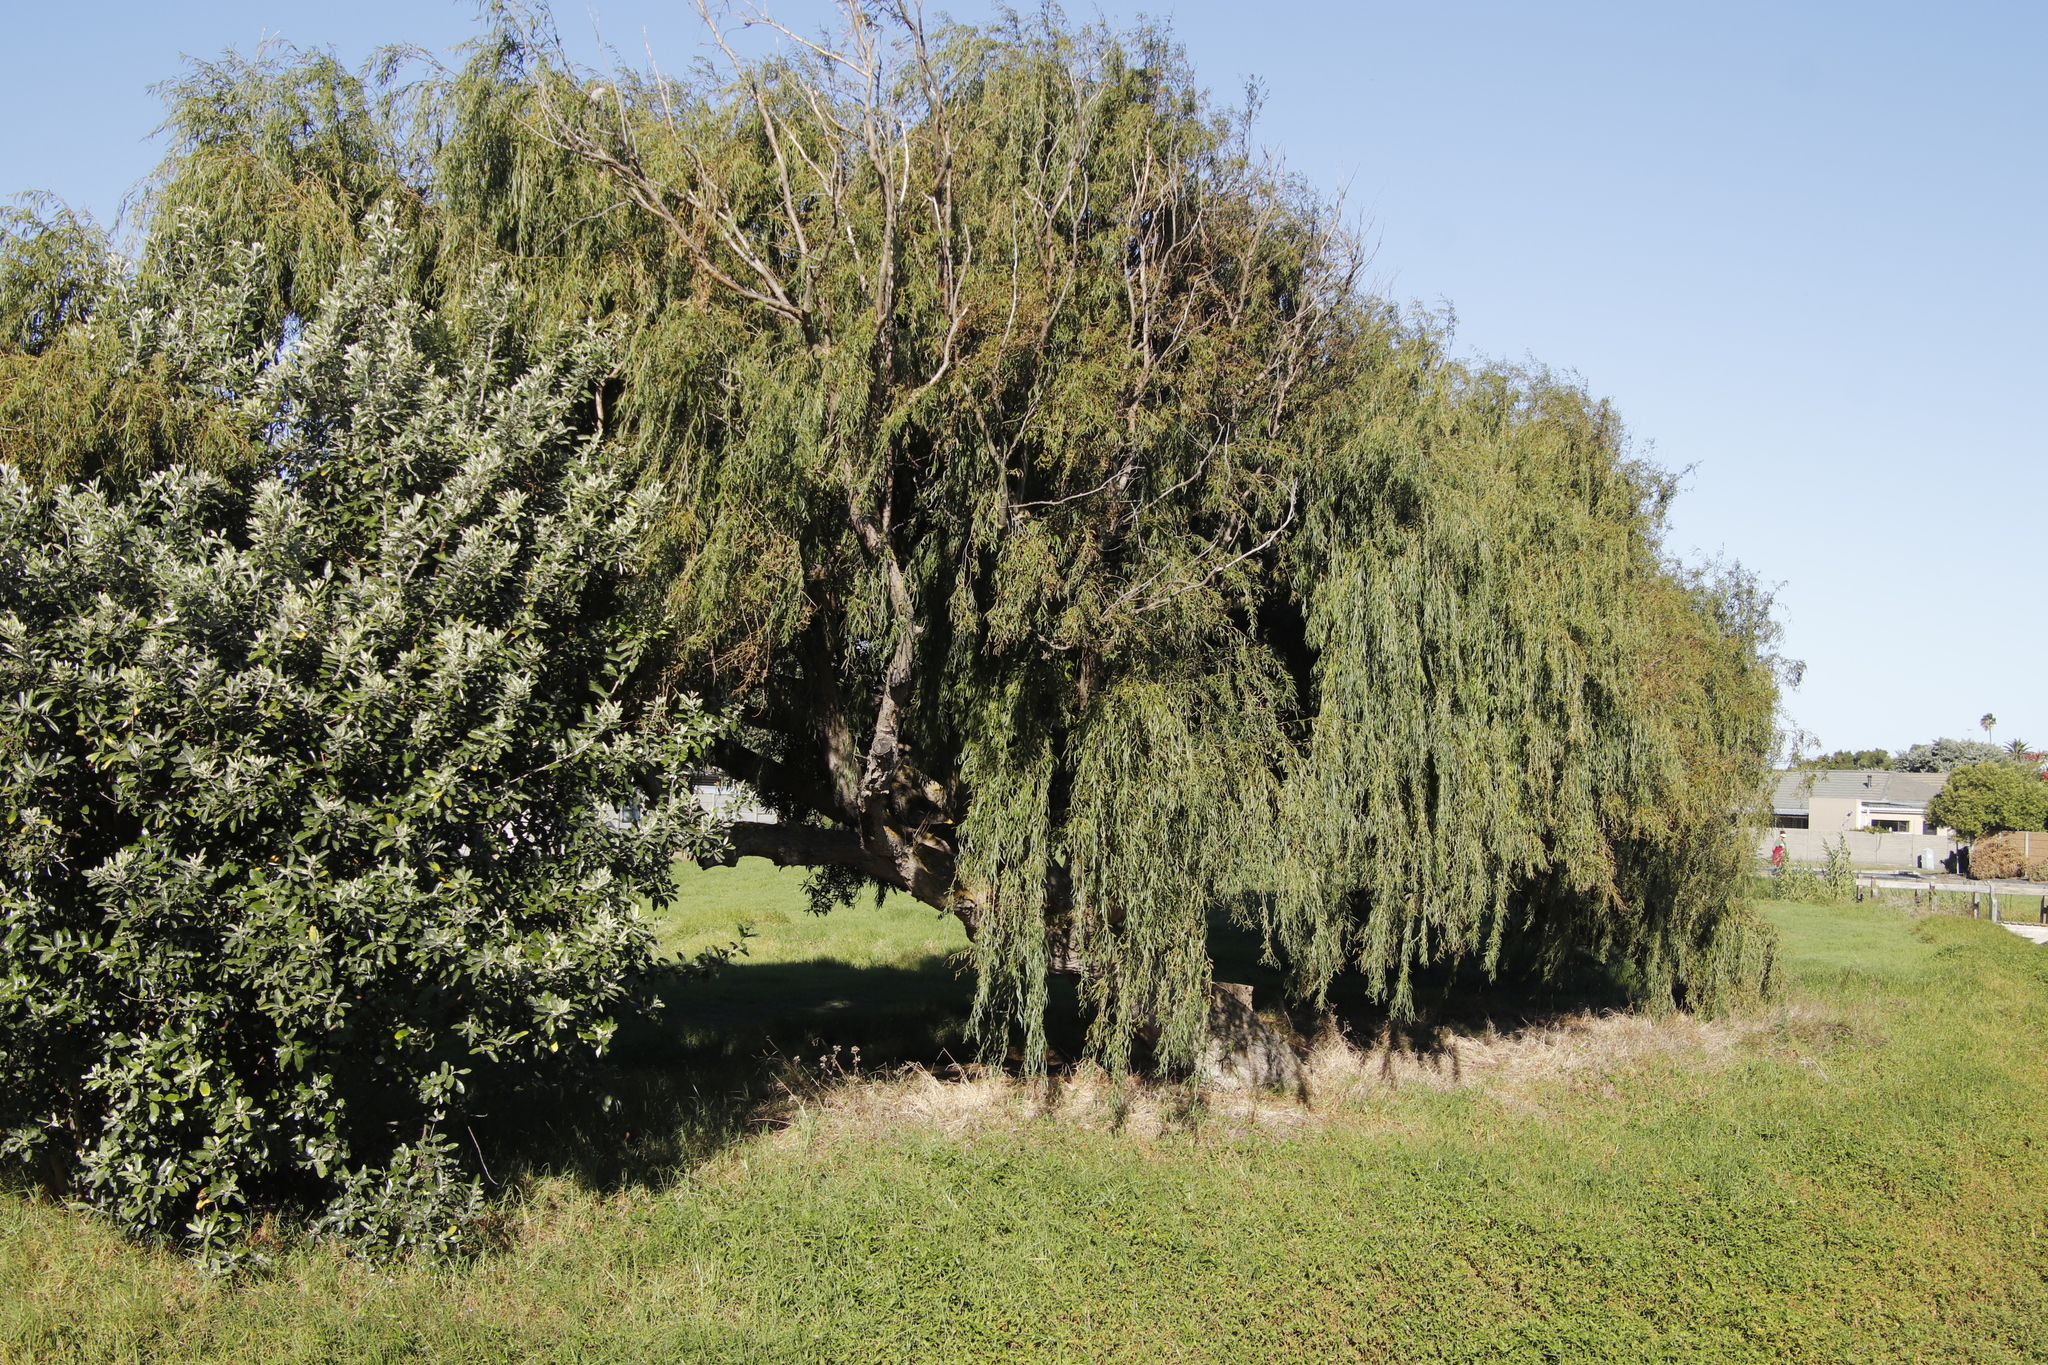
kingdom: Plantae
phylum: Tracheophyta
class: Magnoliopsida
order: Malpighiales
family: Salicaceae
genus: Salix
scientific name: Salix babylonica
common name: Weeping willow
